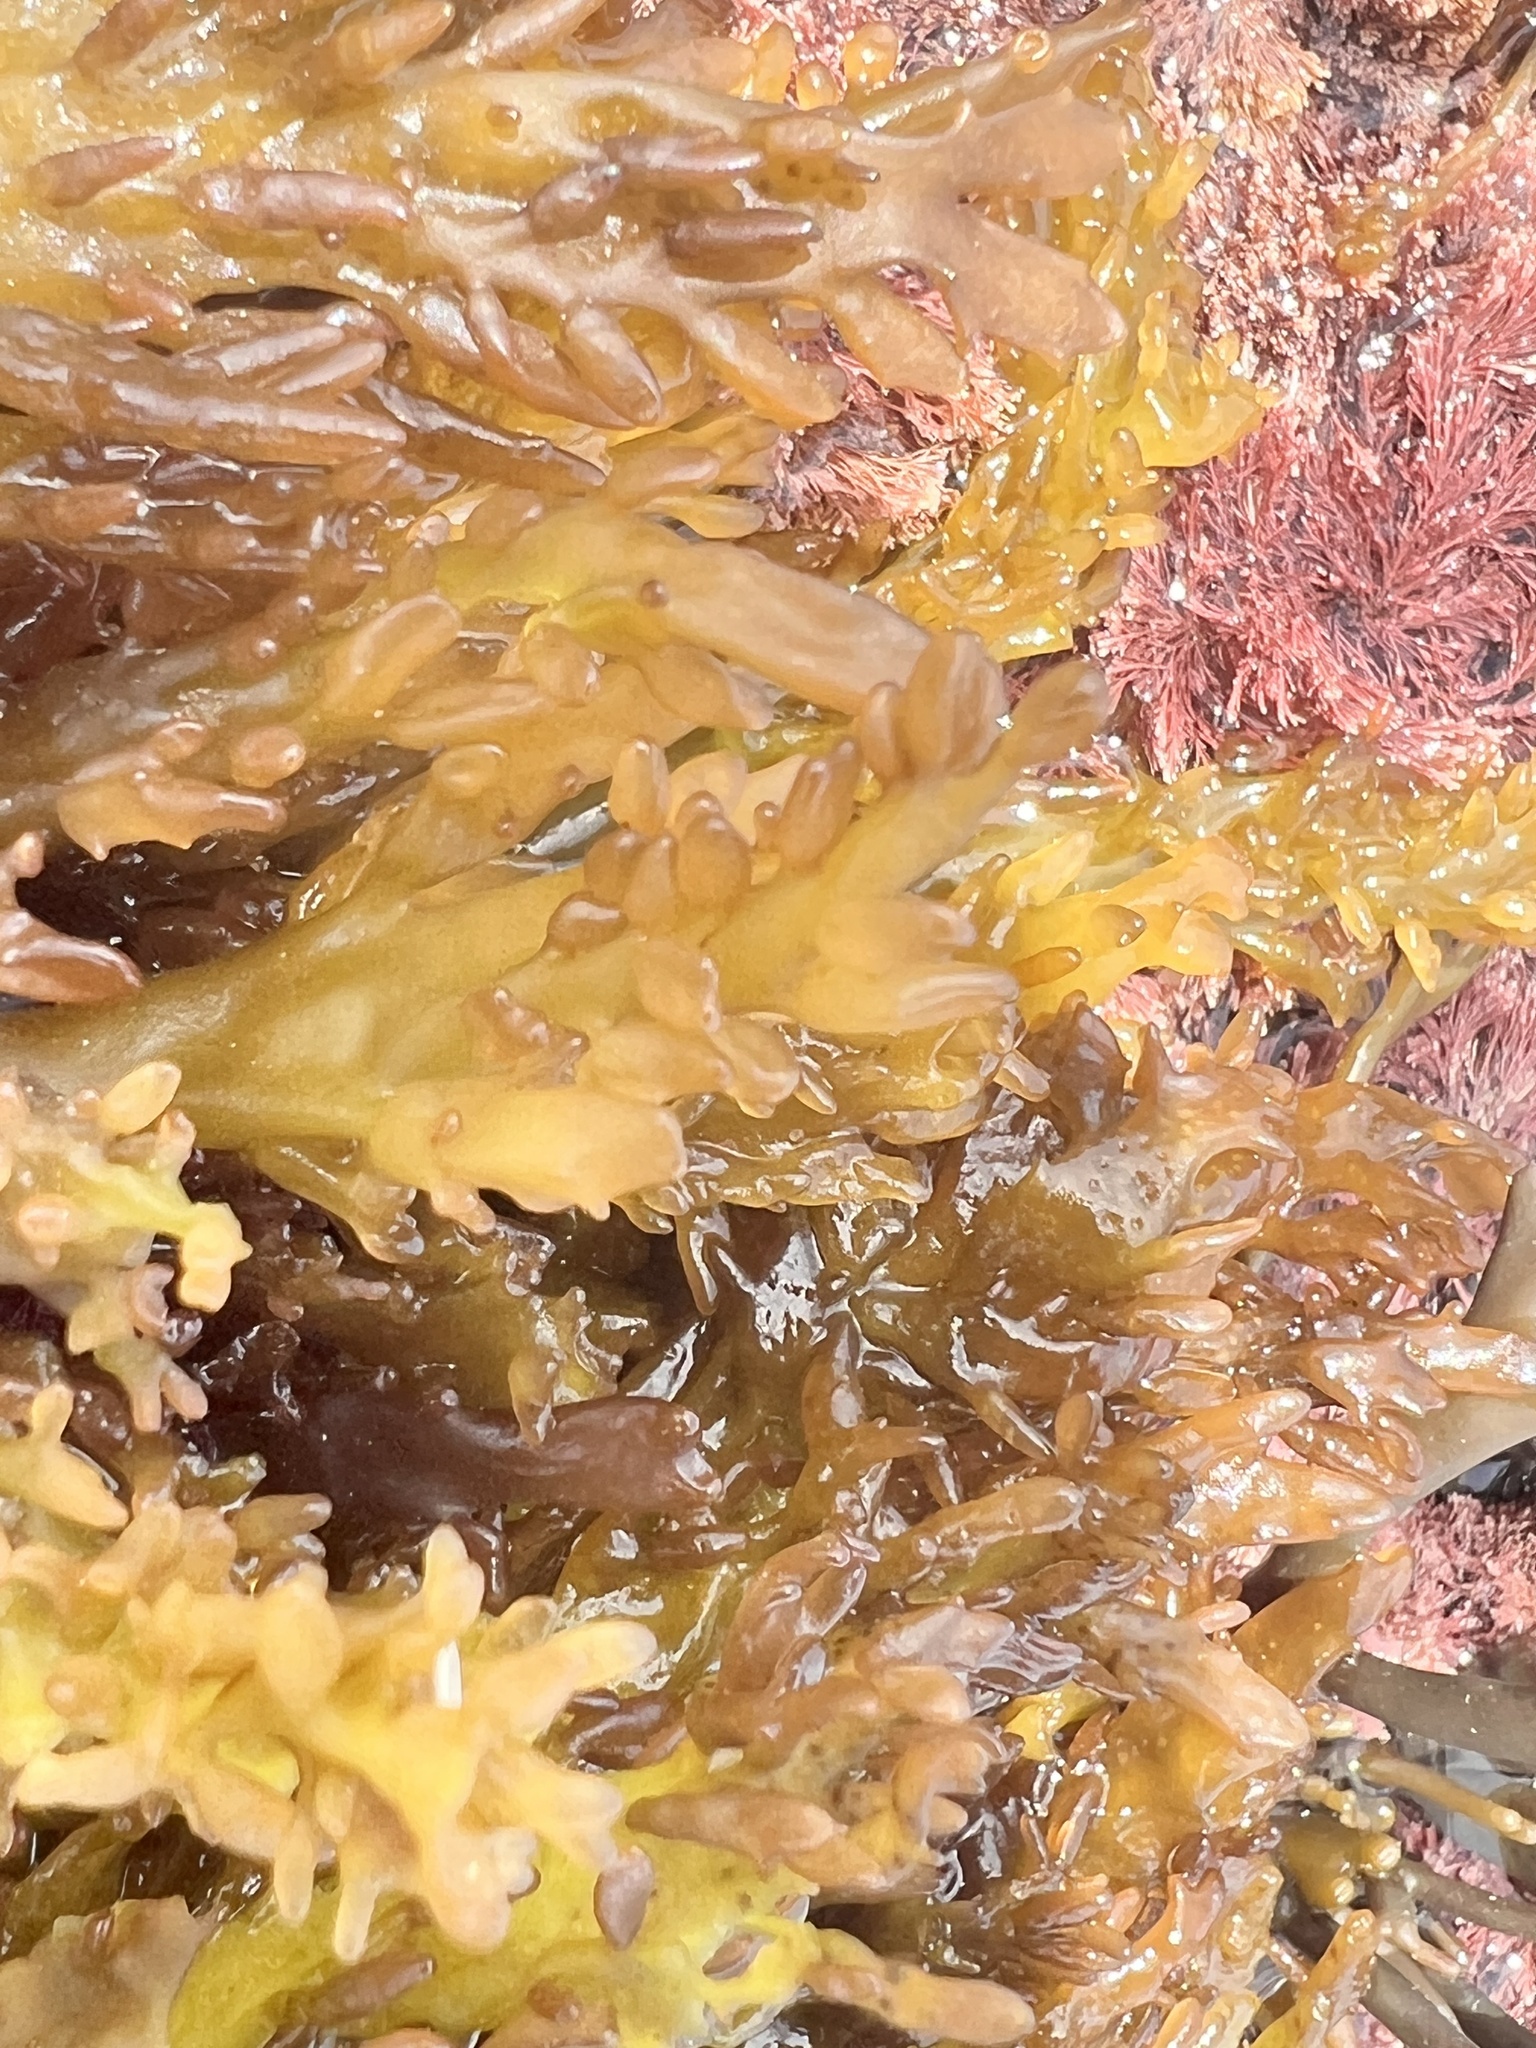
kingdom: Plantae
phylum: Rhodophyta
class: Florideophyceae
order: Gigartinales
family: Gigartinaceae
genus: Sarcothalia
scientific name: Sarcothalia livida
